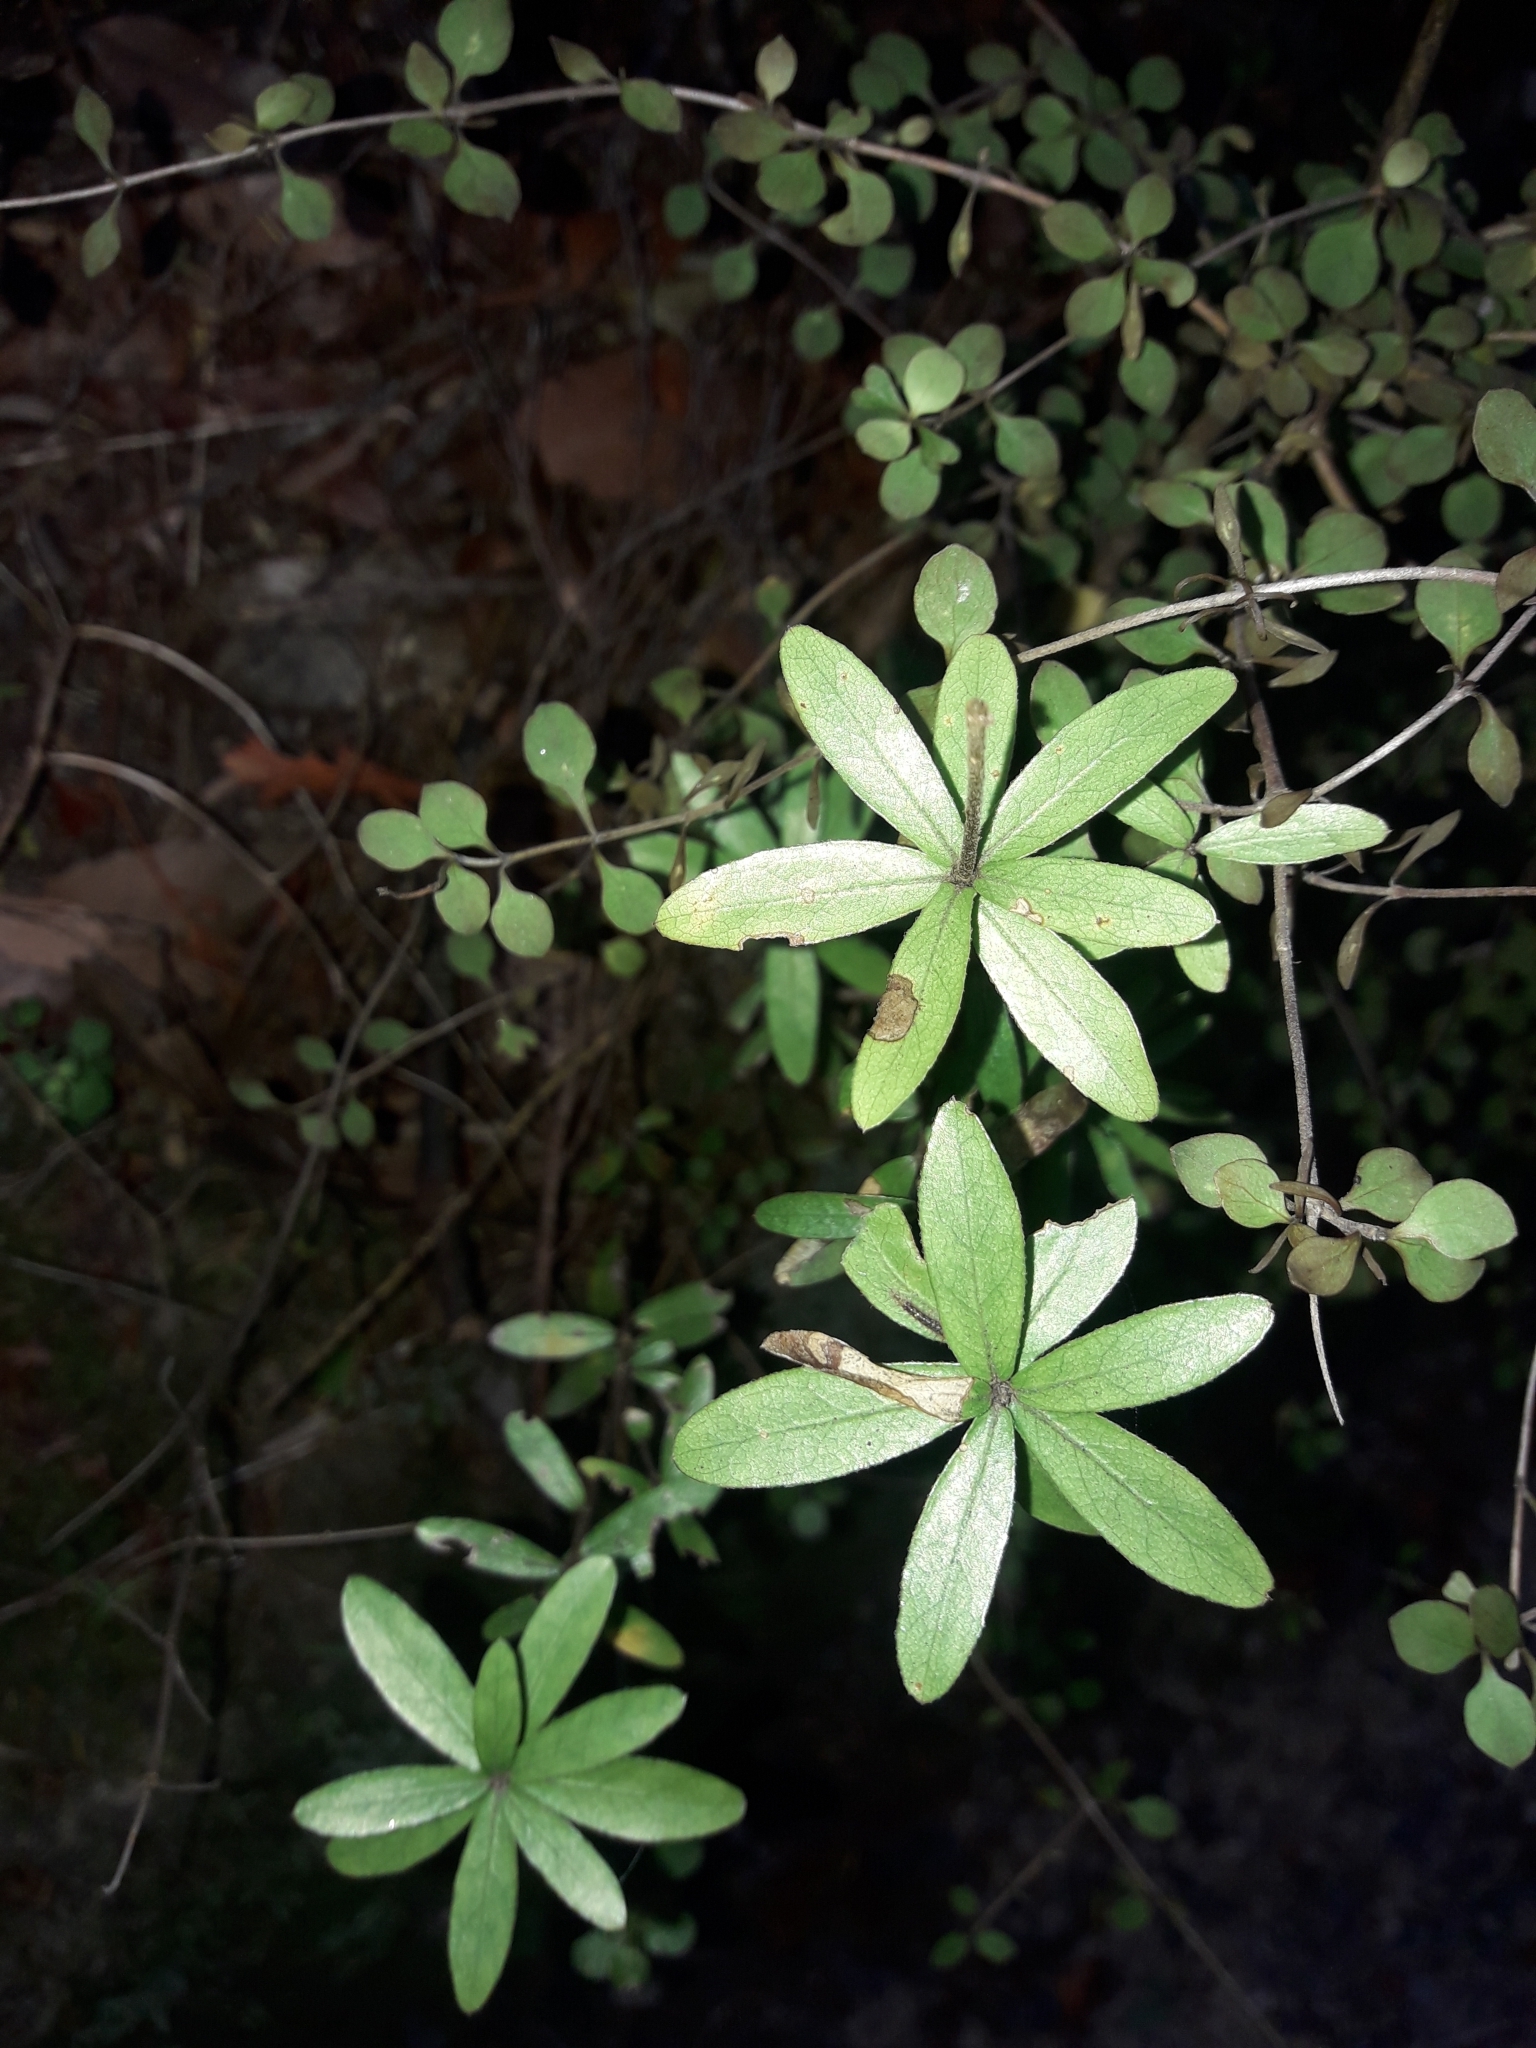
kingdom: Plantae
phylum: Tracheophyta
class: Magnoliopsida
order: Apiales
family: Pittosporaceae
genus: Pittosporum
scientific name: Pittosporum pimeleoides
